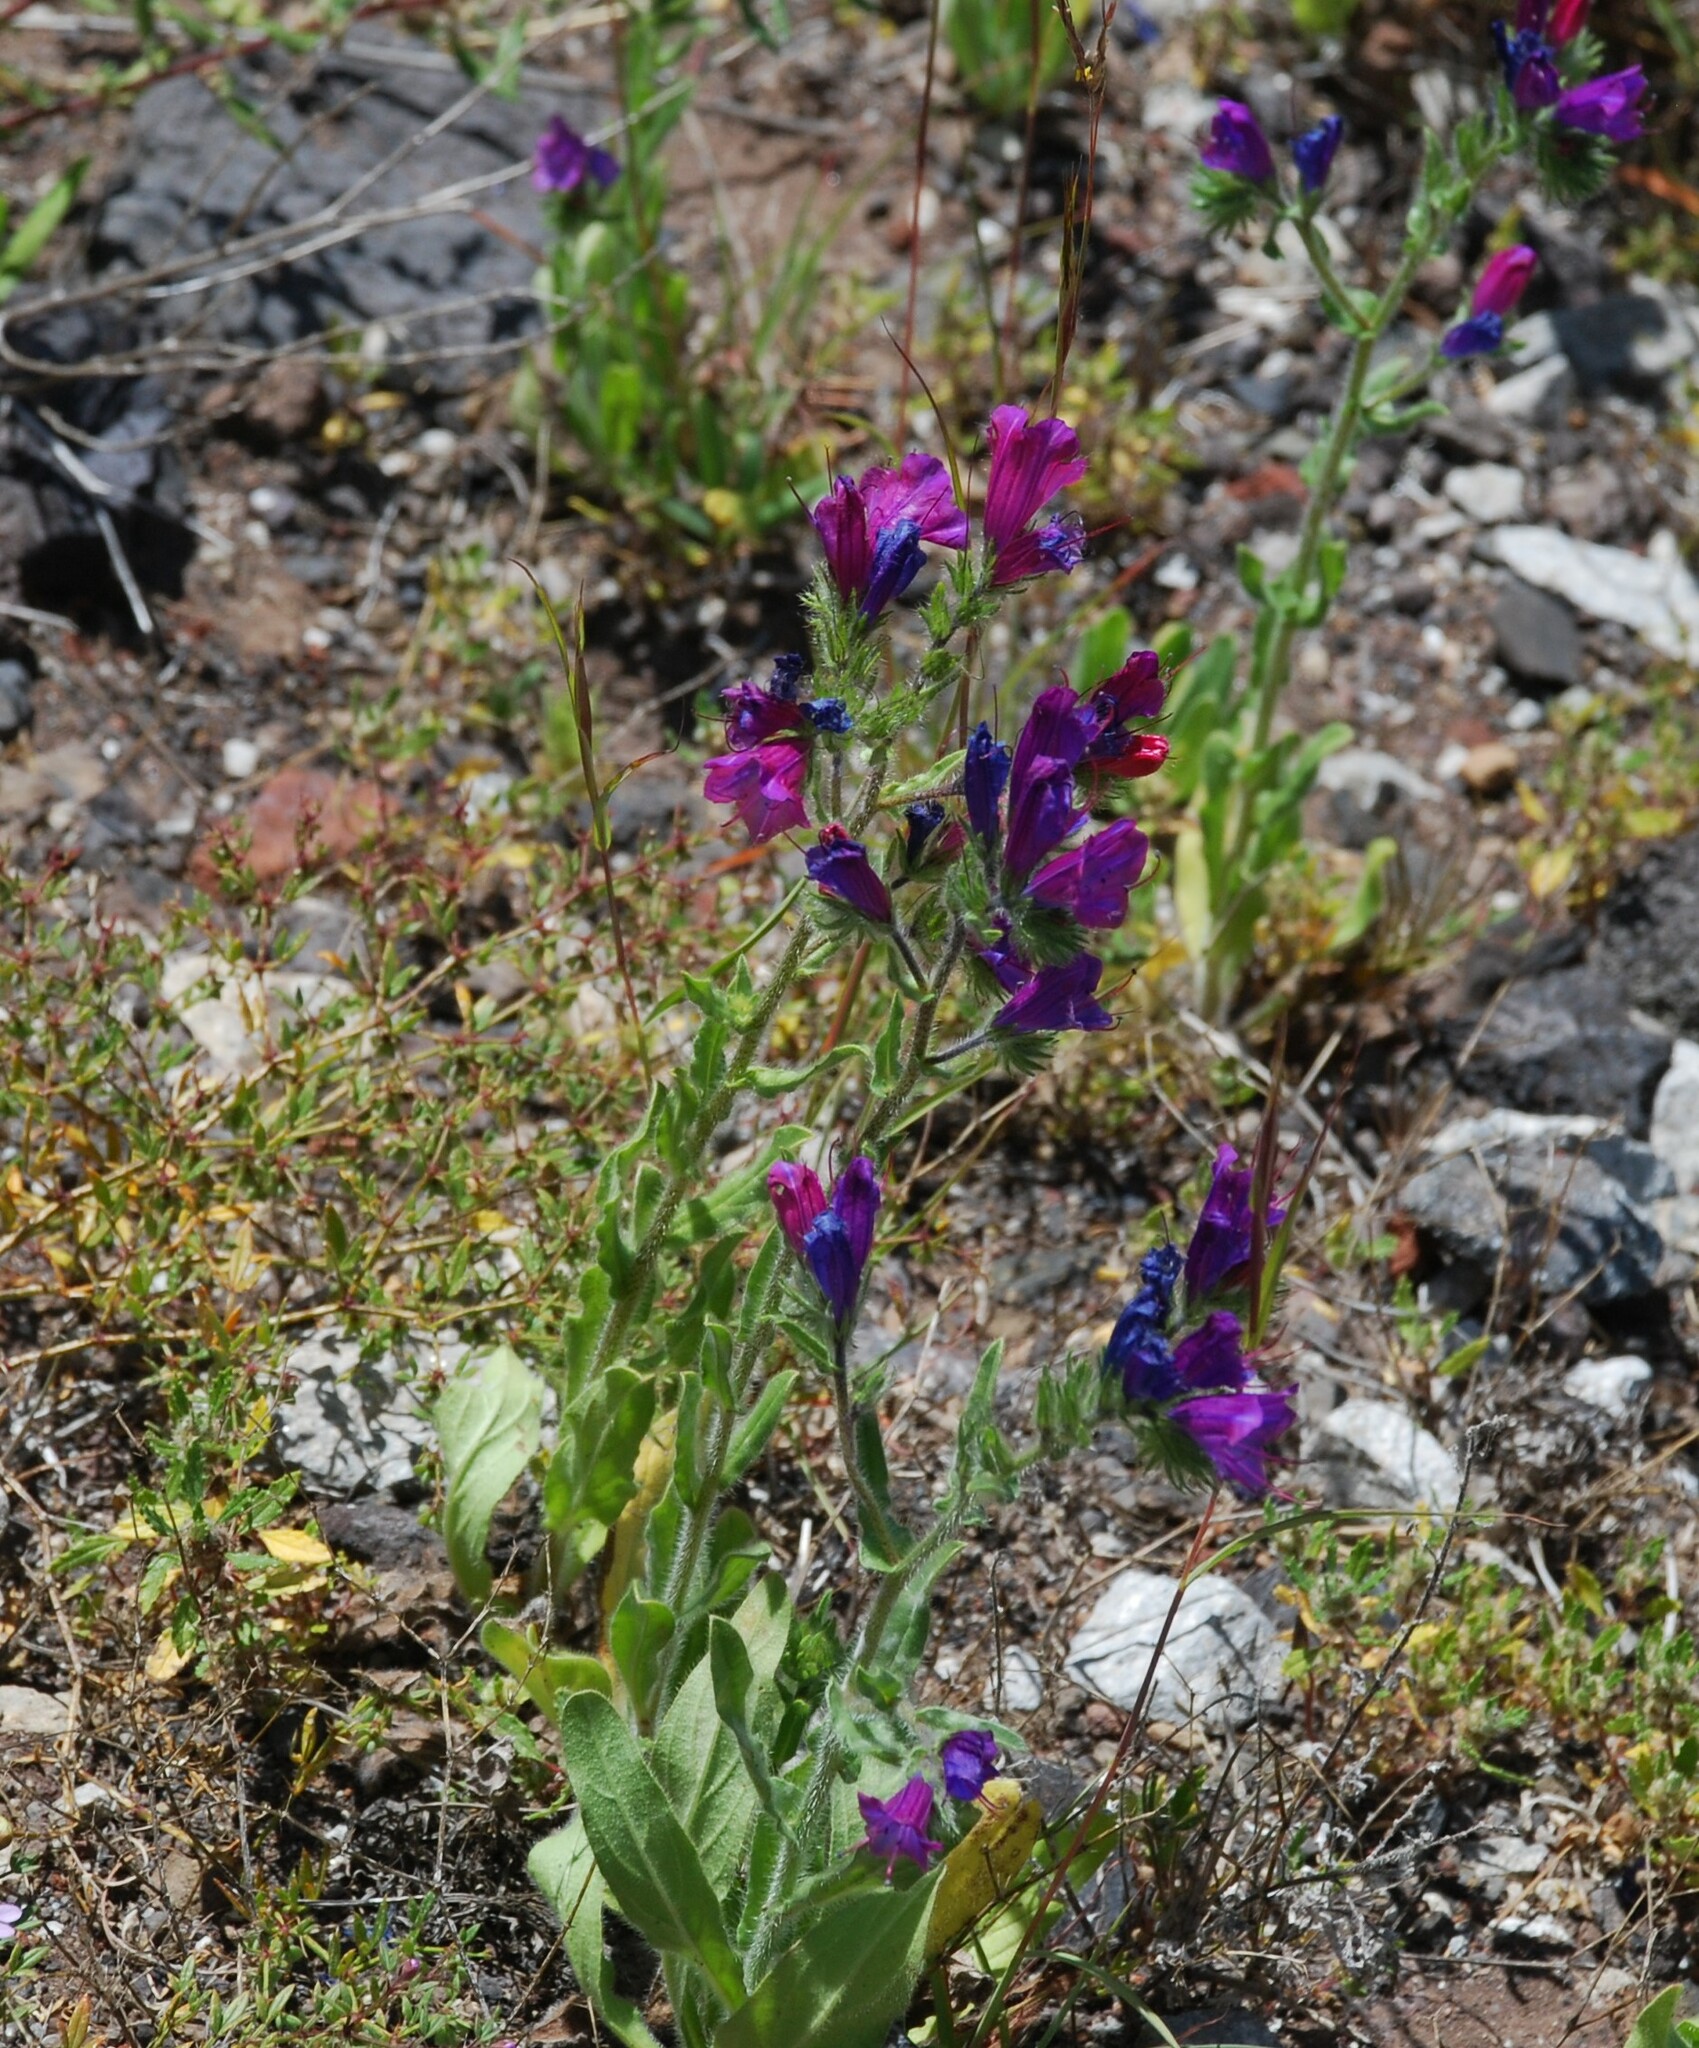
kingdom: Plantae
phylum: Tracheophyta
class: Magnoliopsida
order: Boraginales
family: Boraginaceae
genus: Echium
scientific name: Echium plantagineum
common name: Purple viper's-bugloss
